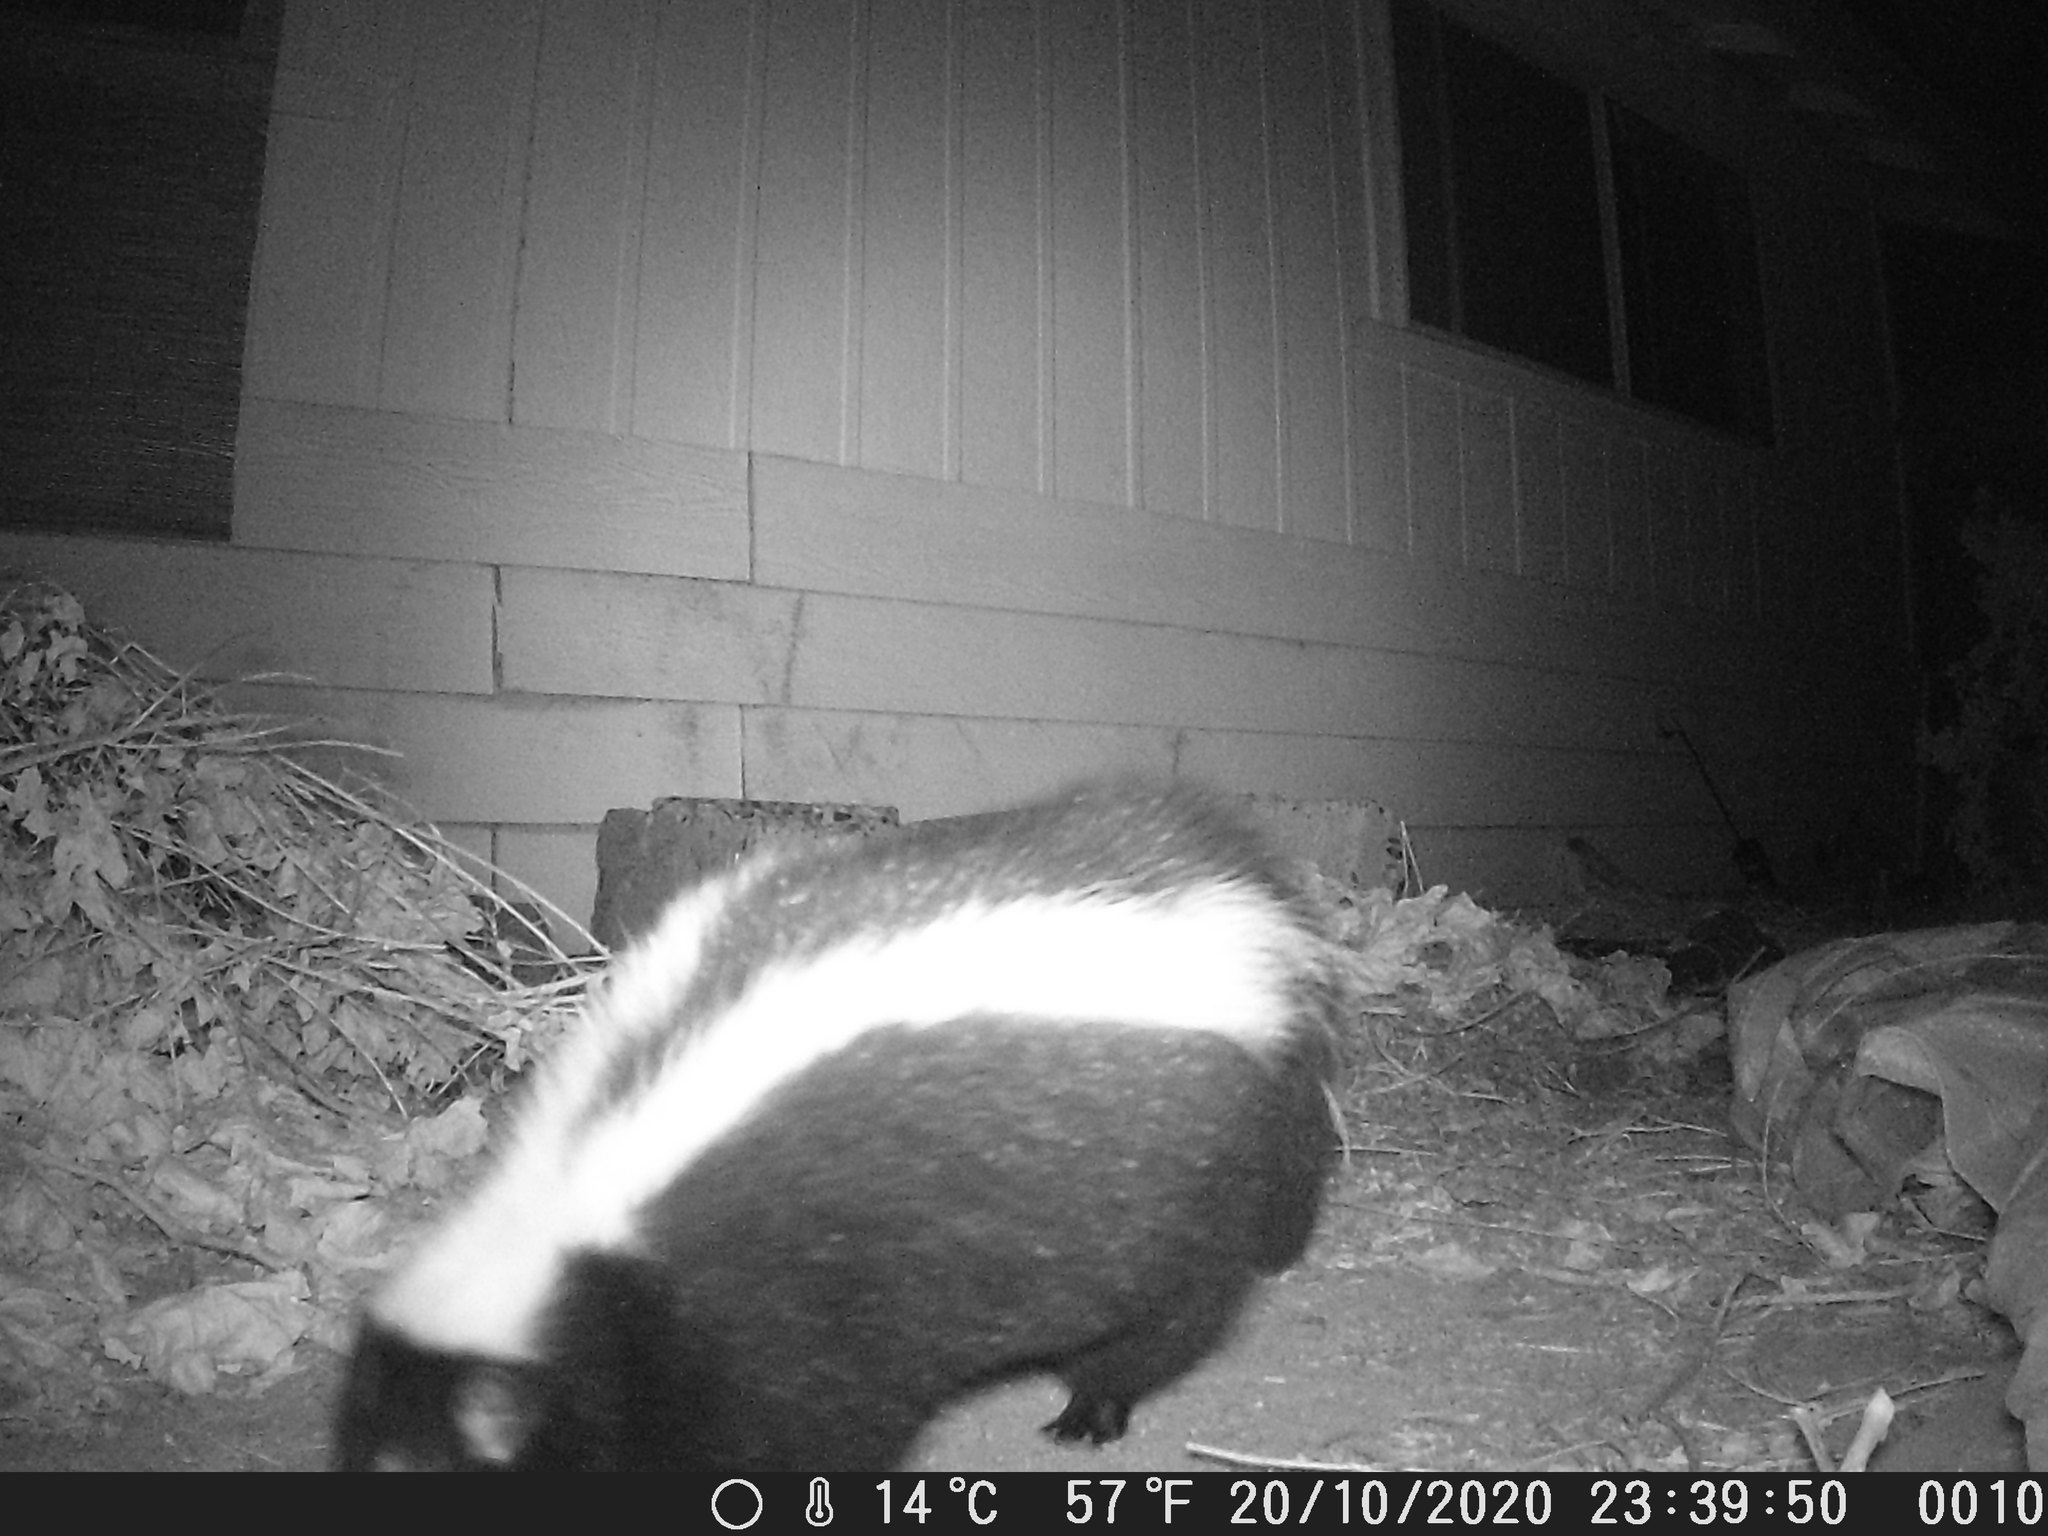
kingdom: Animalia
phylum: Chordata
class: Mammalia
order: Carnivora
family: Mephitidae
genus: Mephitis
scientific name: Mephitis mephitis
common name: Striped skunk
